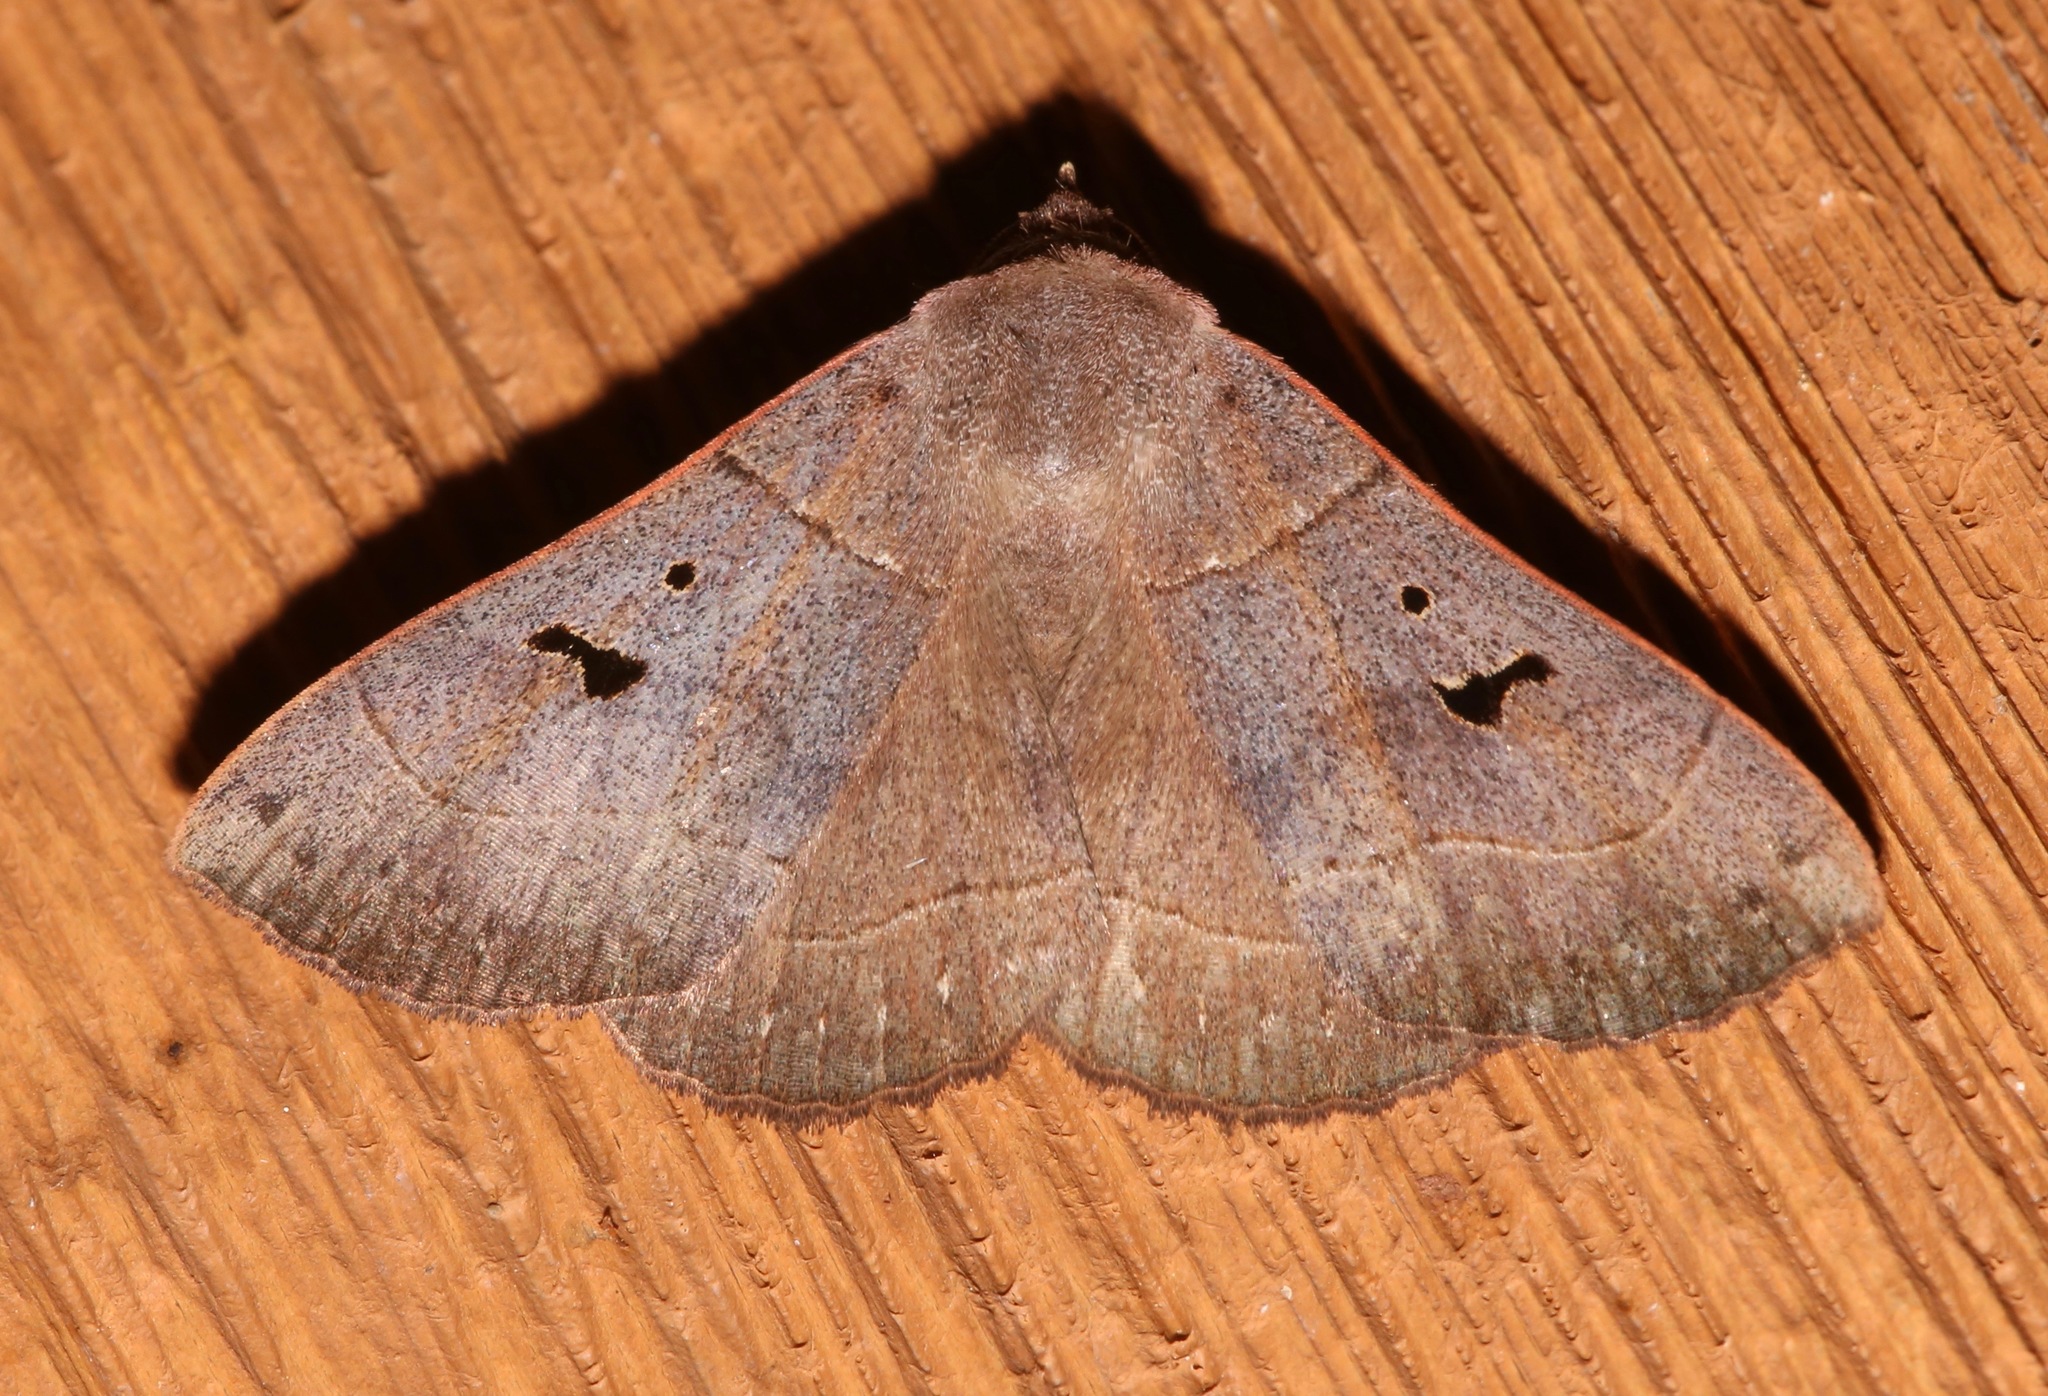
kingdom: Animalia
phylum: Arthropoda
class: Insecta
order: Lepidoptera
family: Erebidae
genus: Panopoda
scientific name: Panopoda carneicosta
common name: Brown panopoda moth
